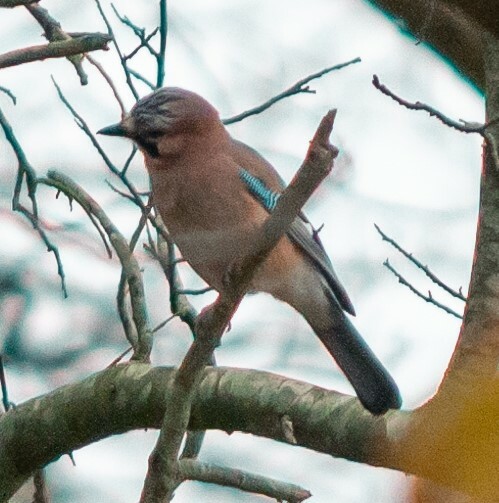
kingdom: Animalia
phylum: Chordata
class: Aves
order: Passeriformes
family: Corvidae
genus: Garrulus
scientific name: Garrulus glandarius
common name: Eurasian jay
